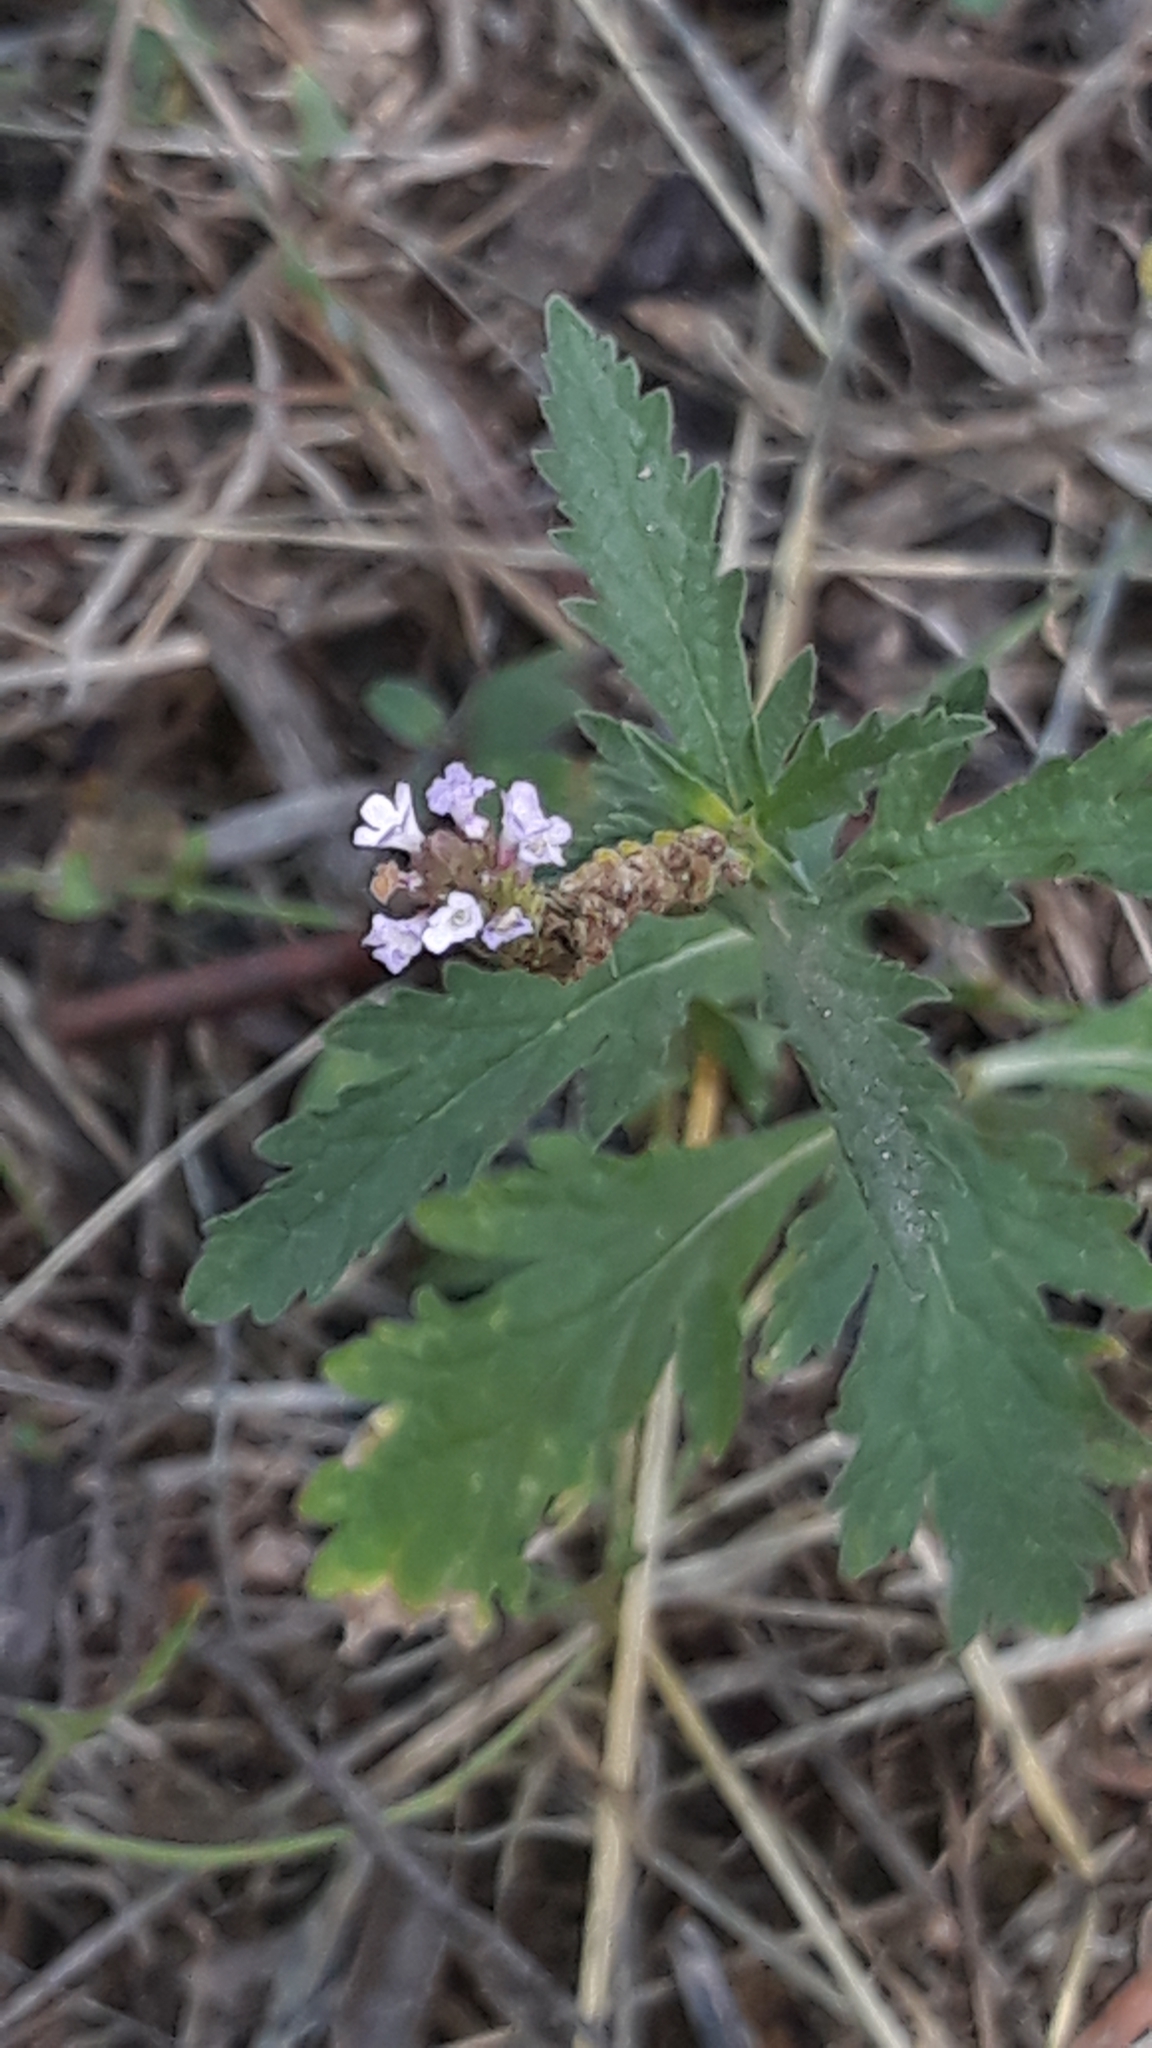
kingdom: Plantae
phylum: Tracheophyta
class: Magnoliopsida
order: Lamiales
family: Verbenaceae
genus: Verbena
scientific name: Verbena officinalis
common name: Vervain
